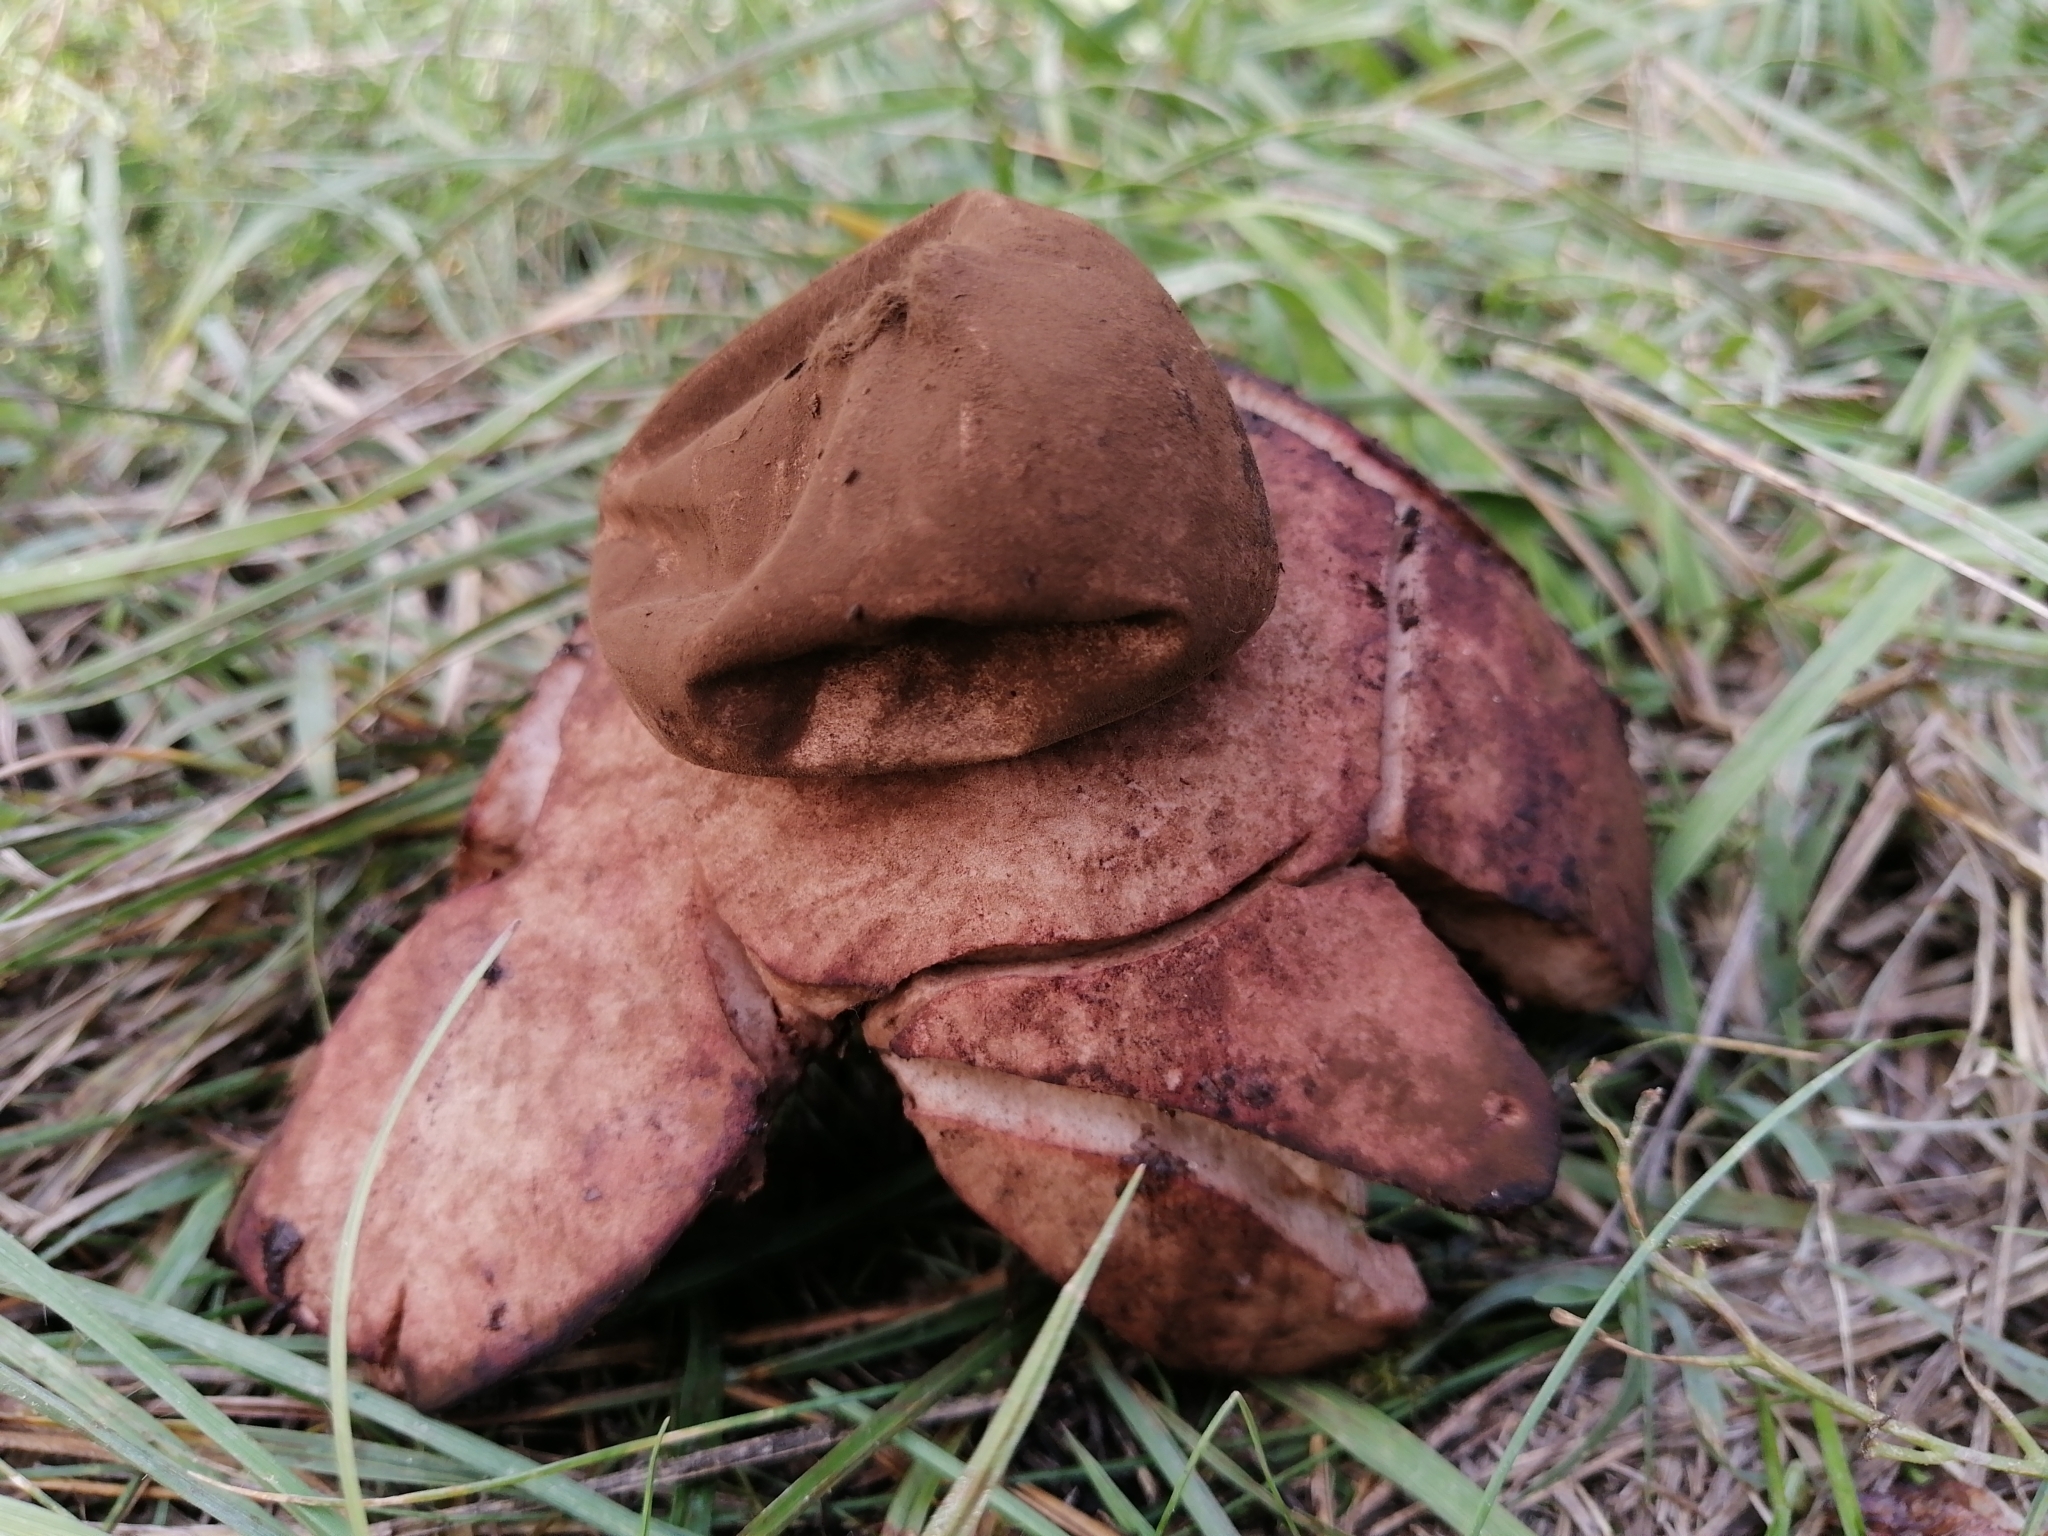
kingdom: Fungi
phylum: Basidiomycota
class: Agaricomycetes
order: Geastrales
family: Geastraceae
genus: Geastrum
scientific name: Geastrum rufescens
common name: Rosy earthstar
